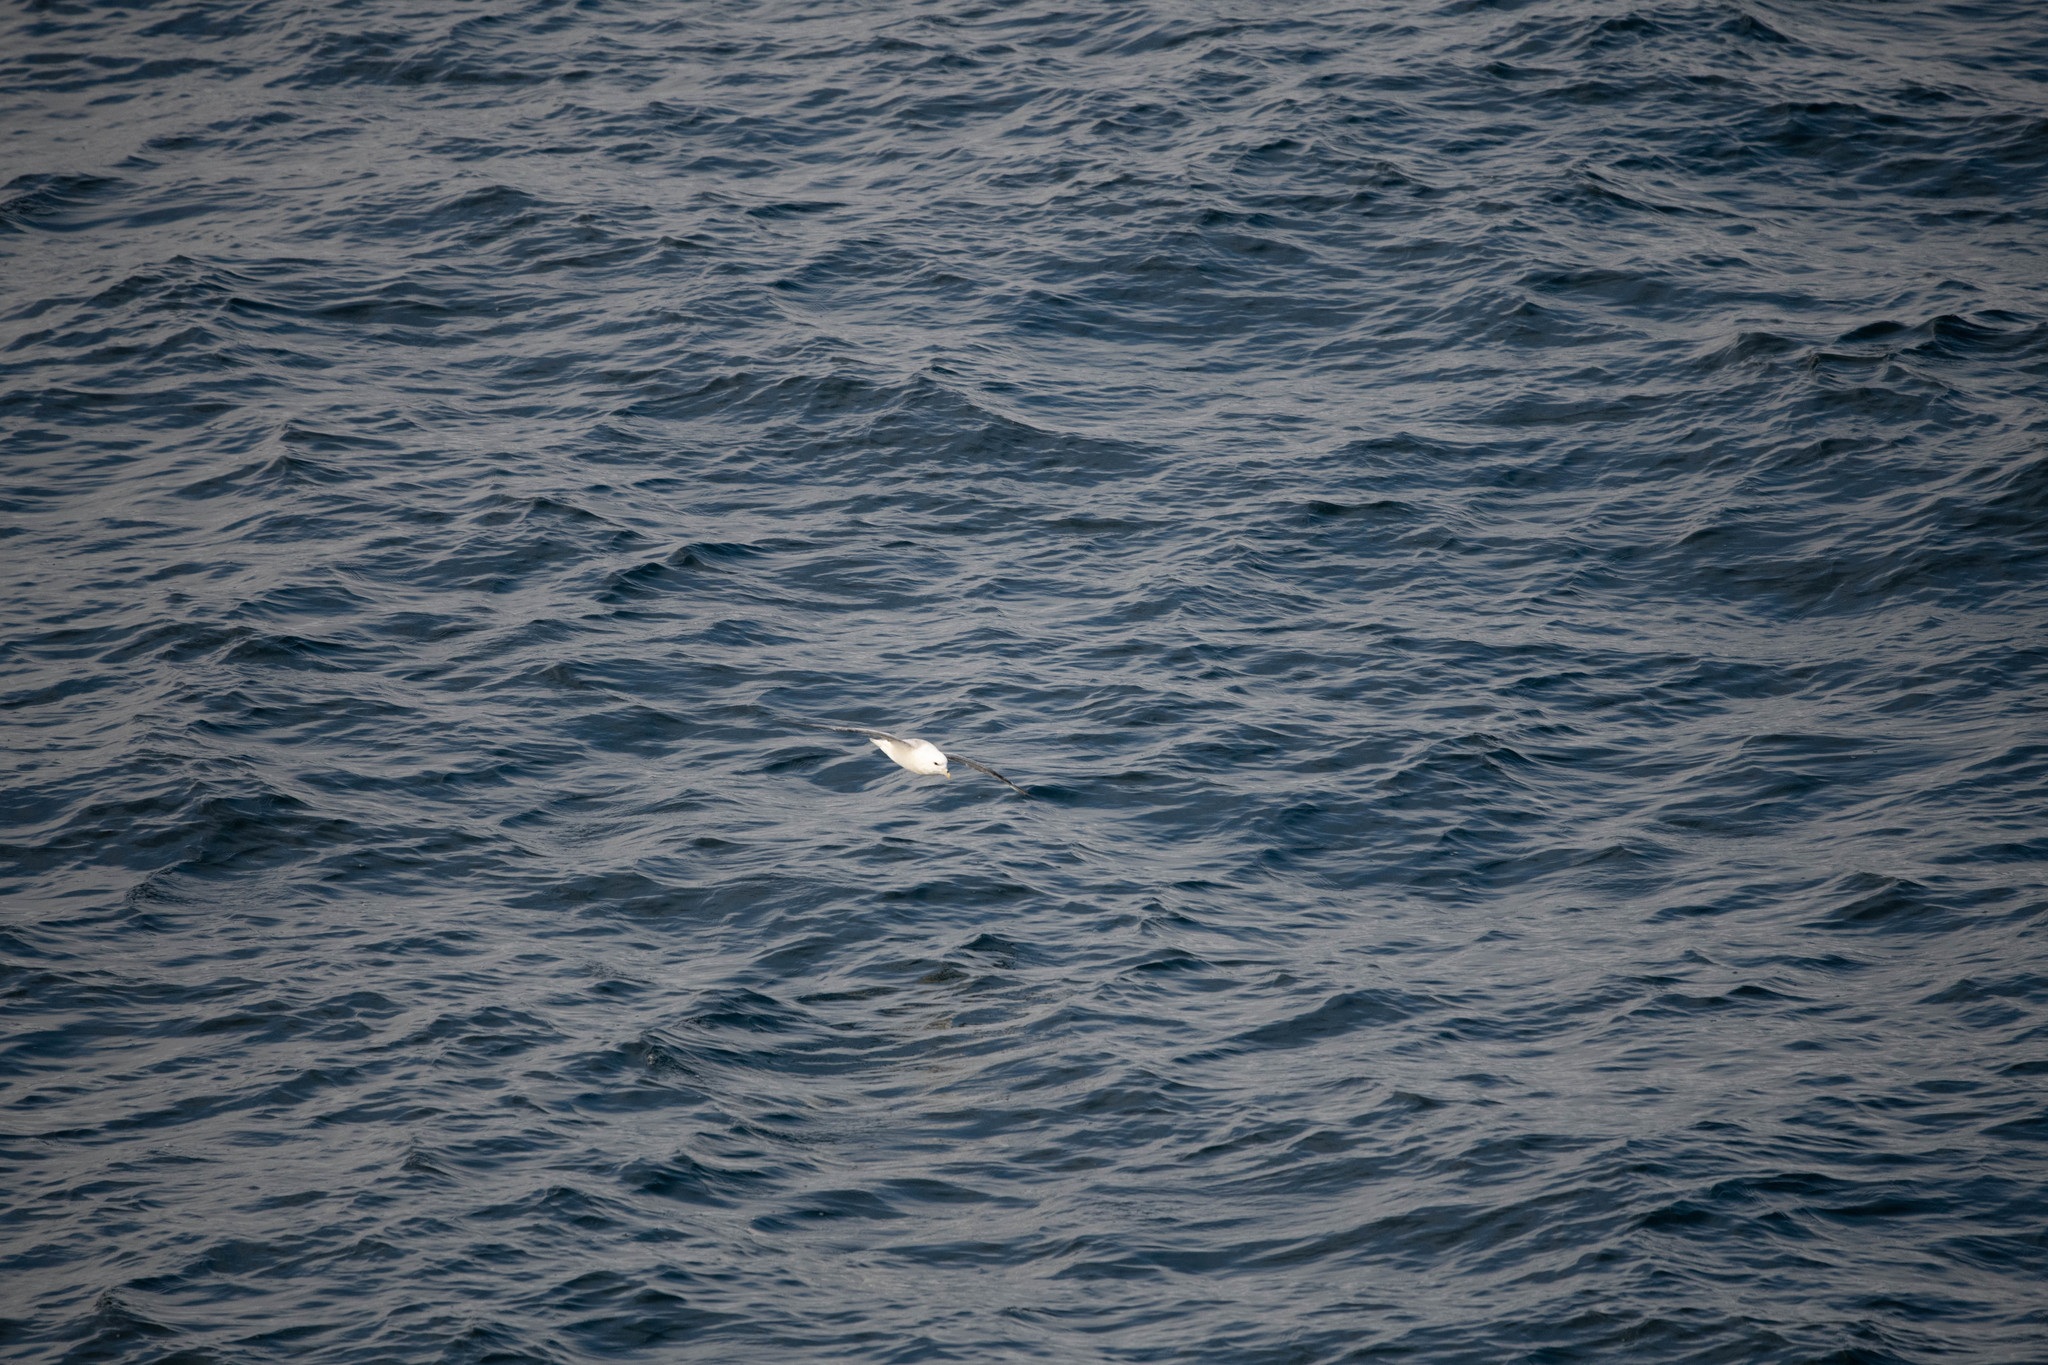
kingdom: Animalia
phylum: Chordata
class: Aves
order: Procellariiformes
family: Procellariidae
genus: Fulmarus
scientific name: Fulmarus glacialis
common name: Northern fulmar
